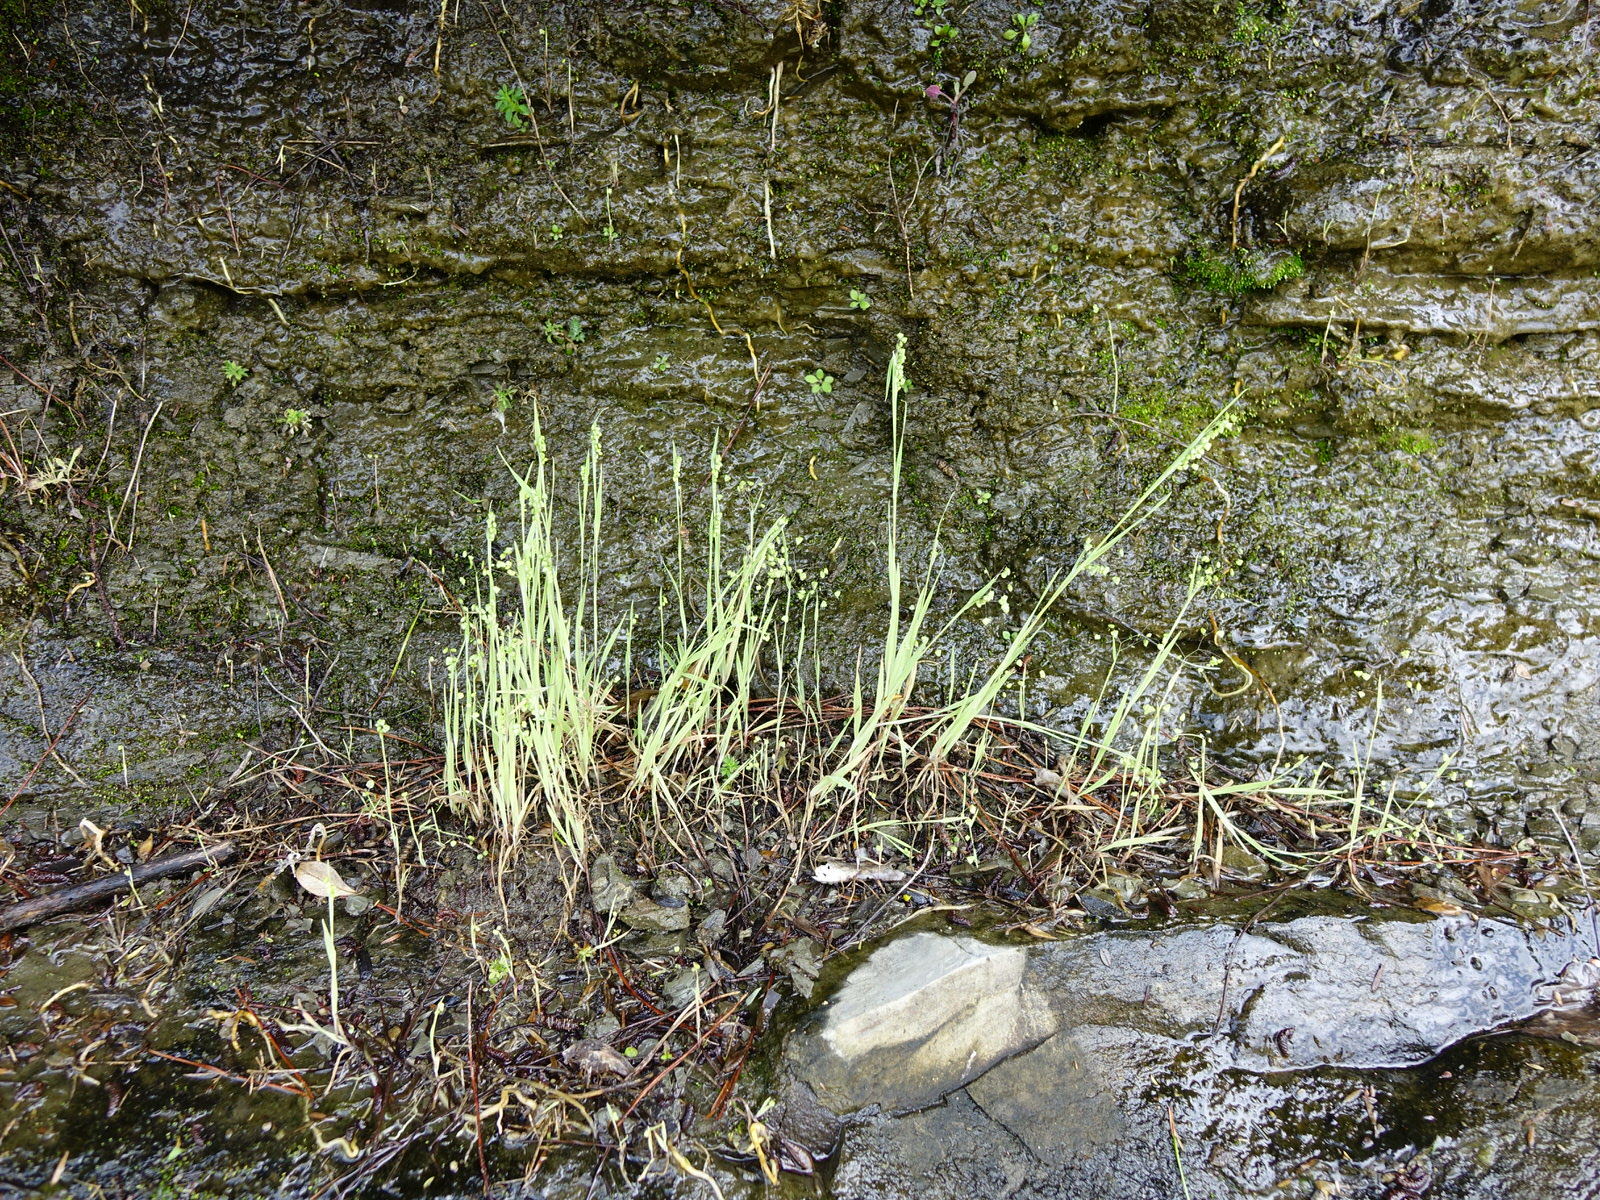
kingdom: Plantae
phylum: Tracheophyta
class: Liliopsida
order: Poales
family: Poaceae
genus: Briza
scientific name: Briza minor
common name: Lesser quaking-grass
